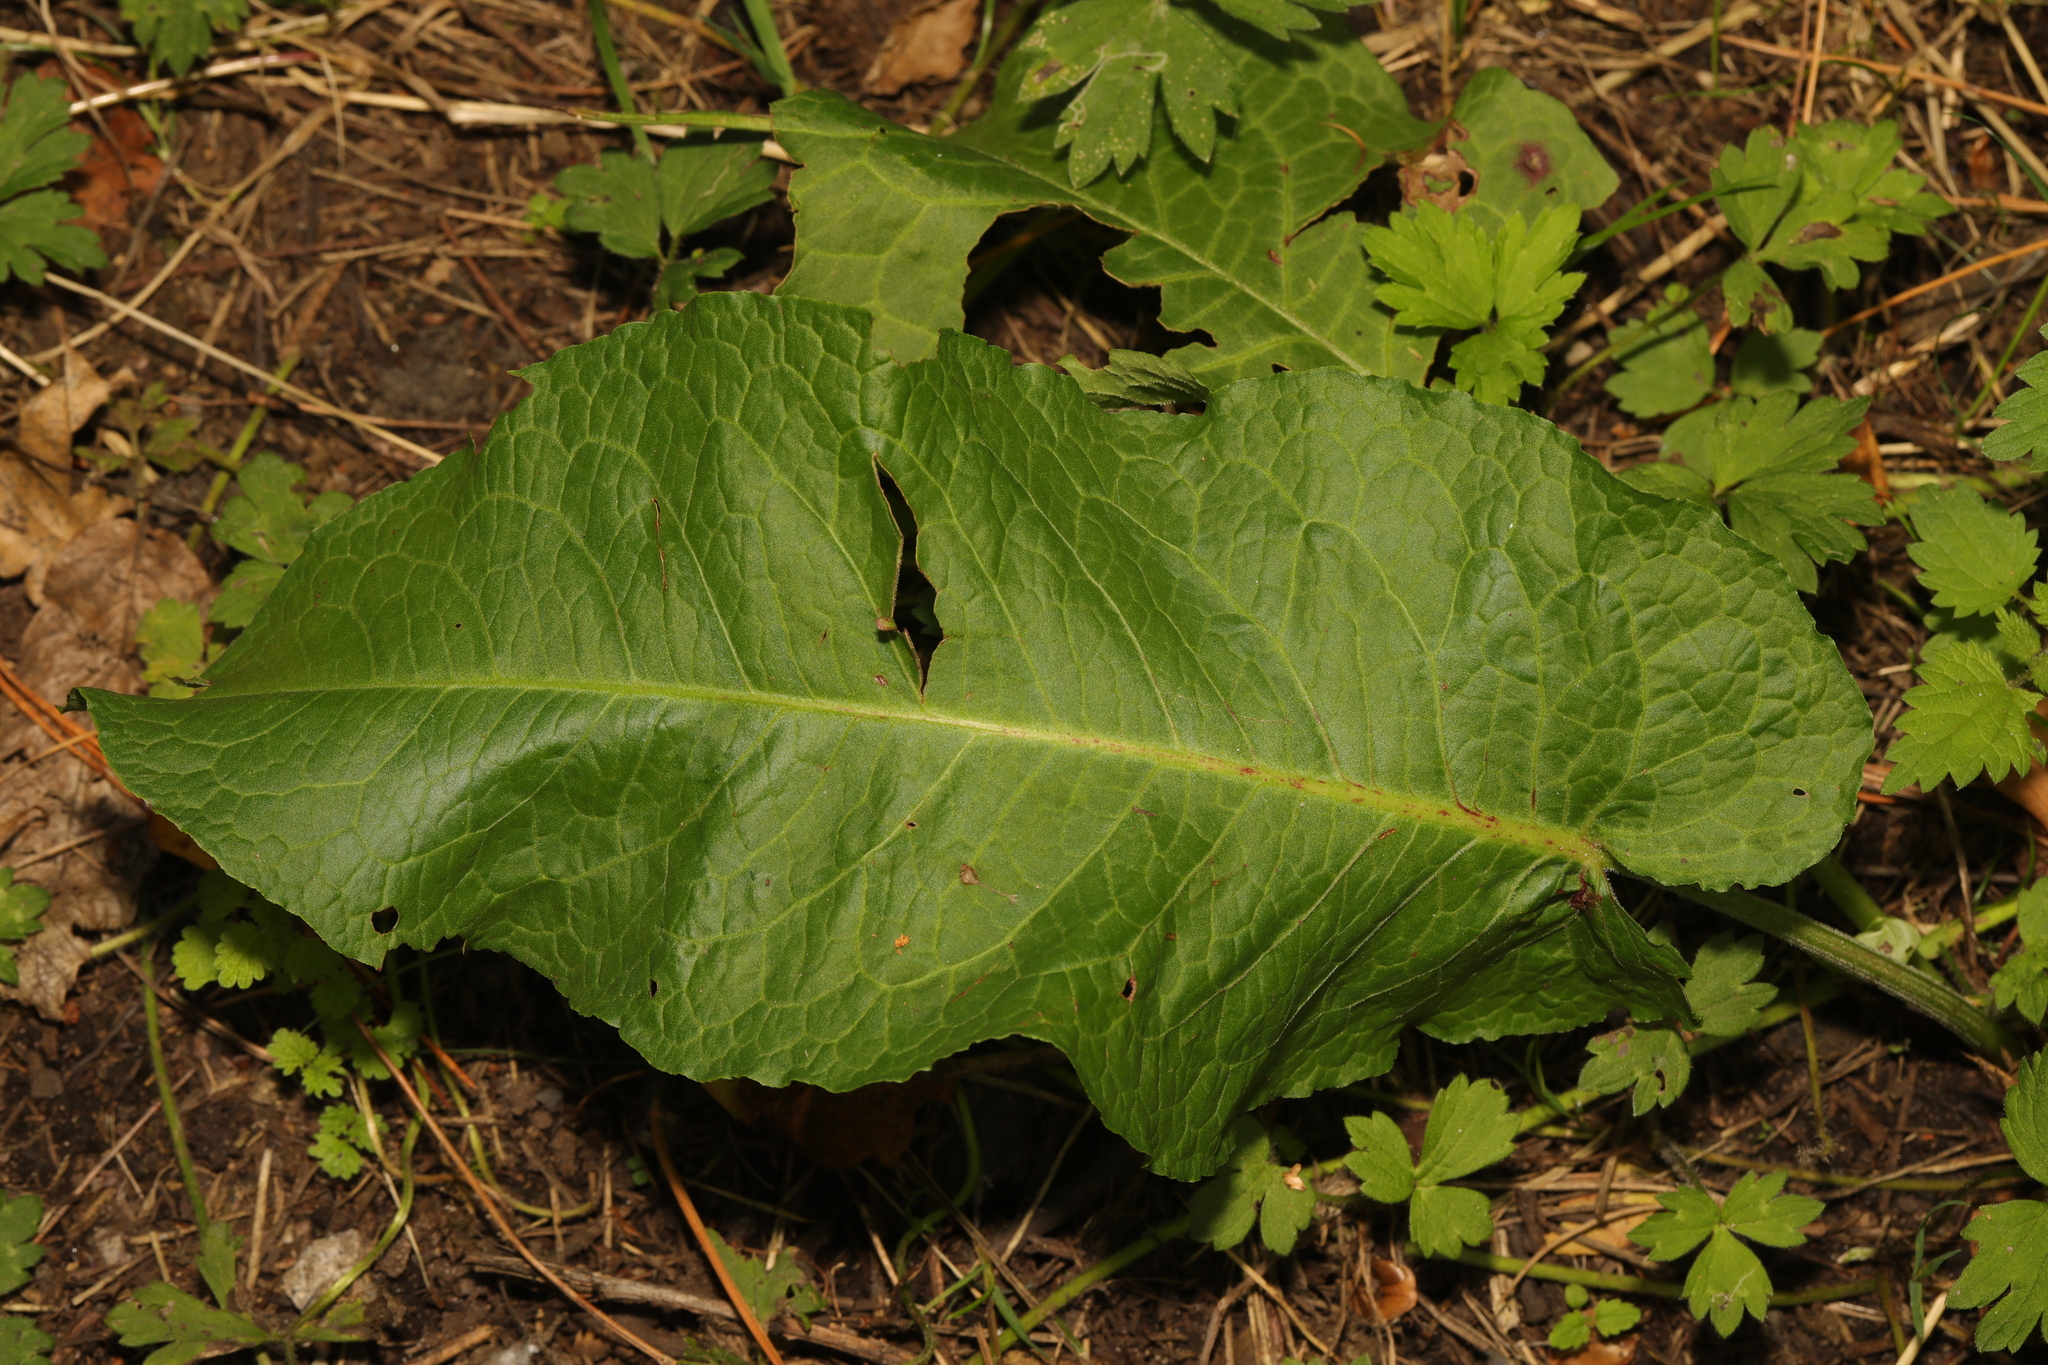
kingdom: Plantae
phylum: Tracheophyta
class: Magnoliopsida
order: Caryophyllales
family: Polygonaceae
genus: Rumex
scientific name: Rumex obtusifolius
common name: Bitter dock
